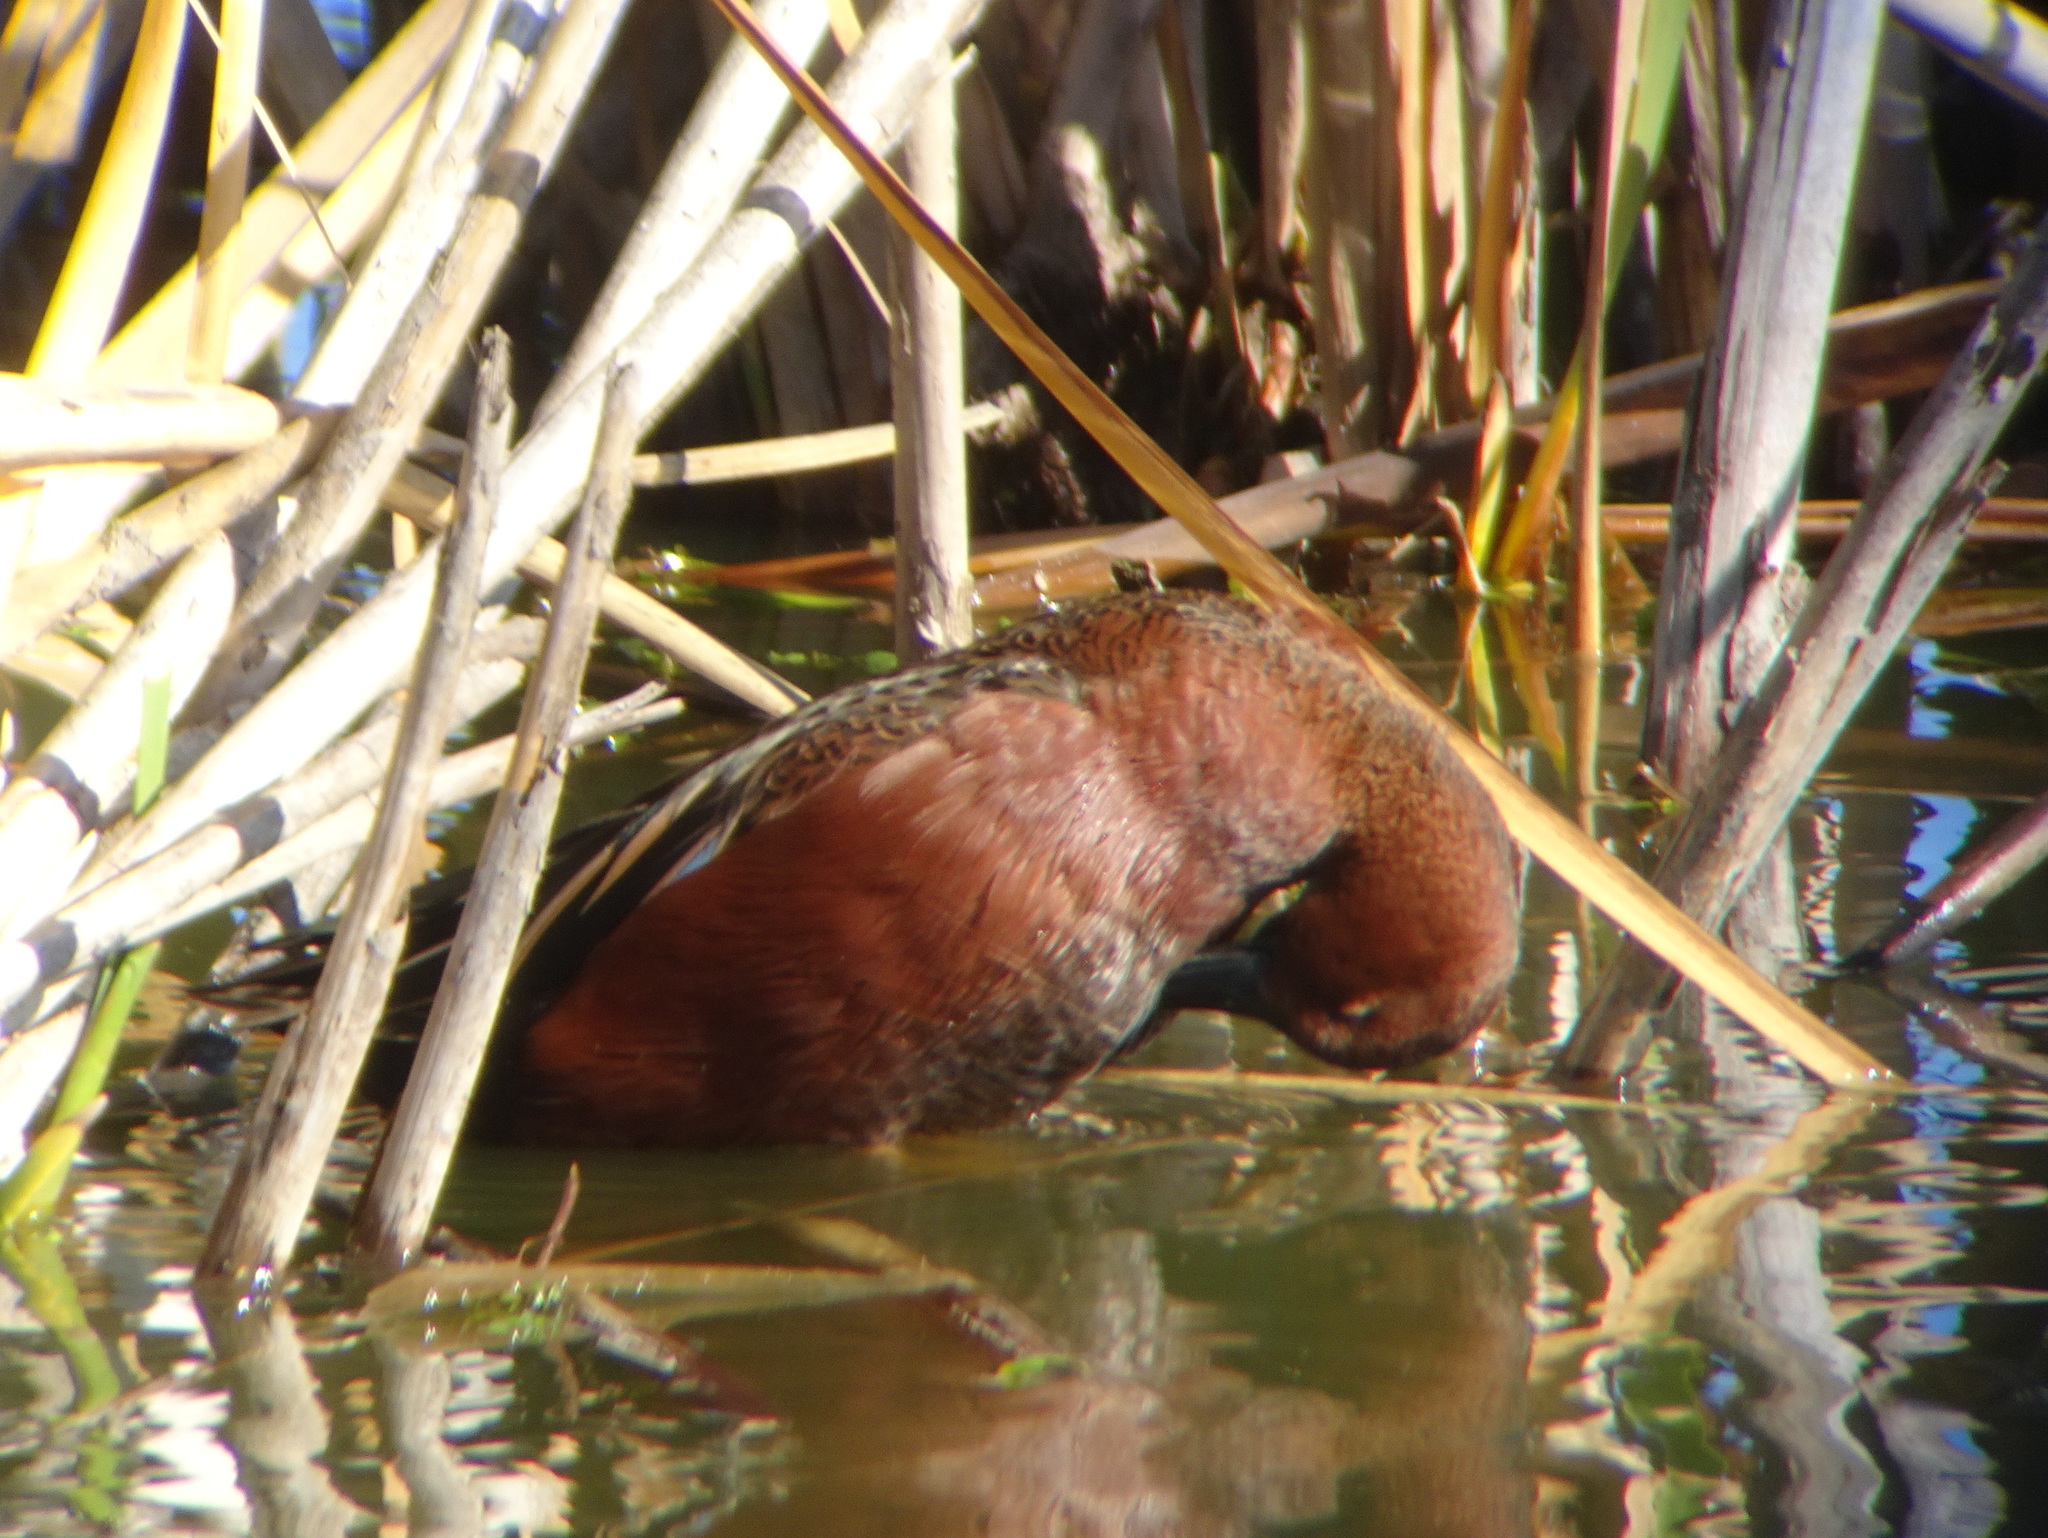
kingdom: Animalia
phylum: Chordata
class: Aves
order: Anseriformes
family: Anatidae
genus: Spatula
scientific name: Spatula cyanoptera
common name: Cinnamon teal
